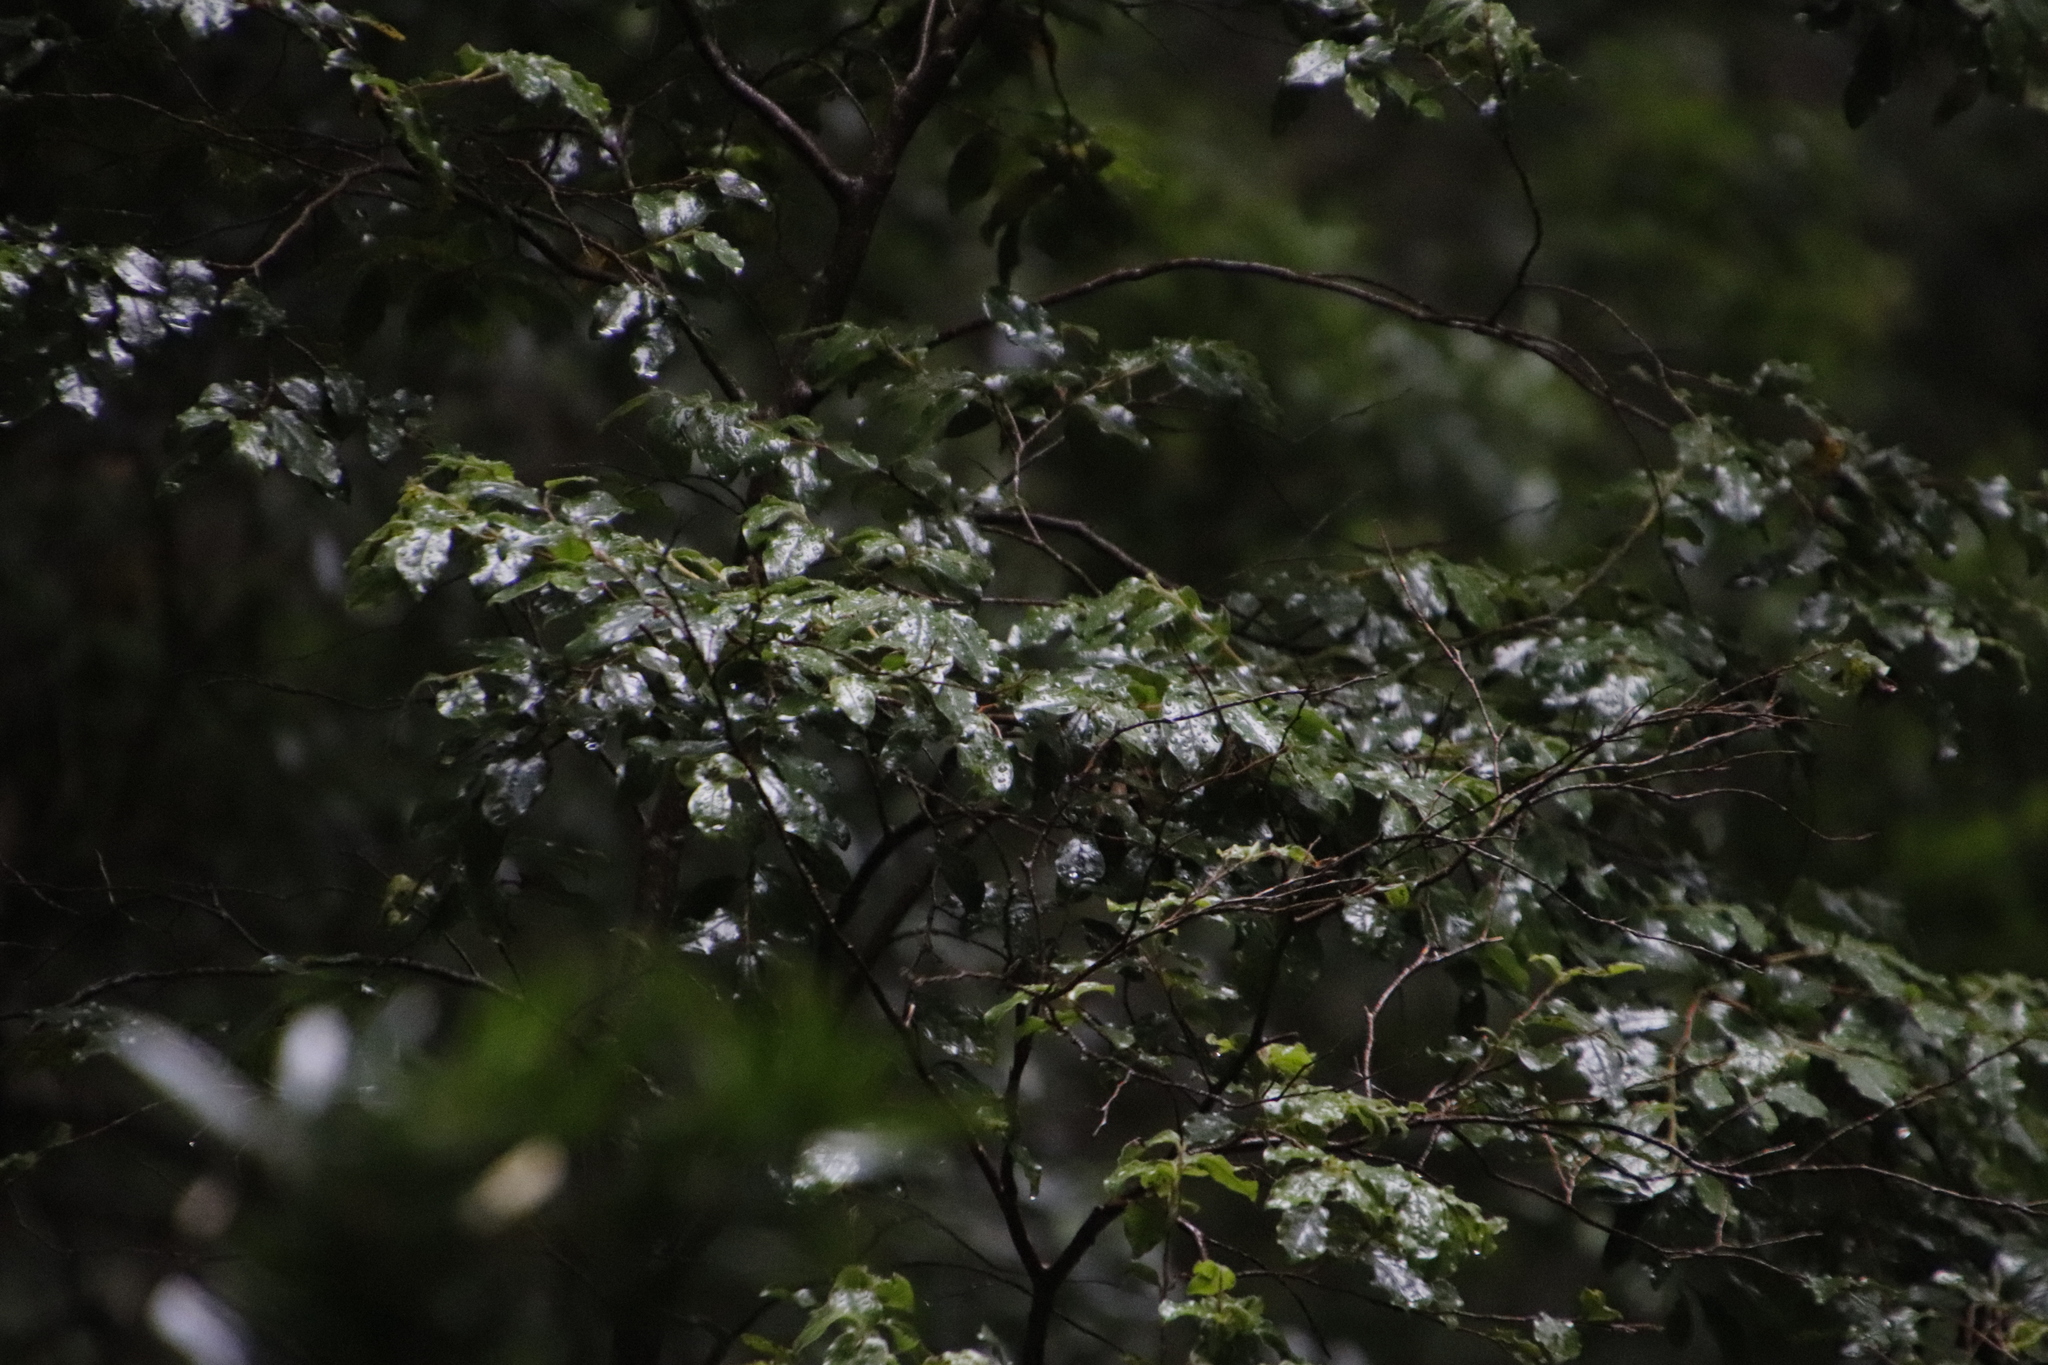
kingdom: Plantae
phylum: Tracheophyta
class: Magnoliopsida
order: Ericales
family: Ebenaceae
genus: Diospyros
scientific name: Diospyros whyteana
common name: Bladder-nut
